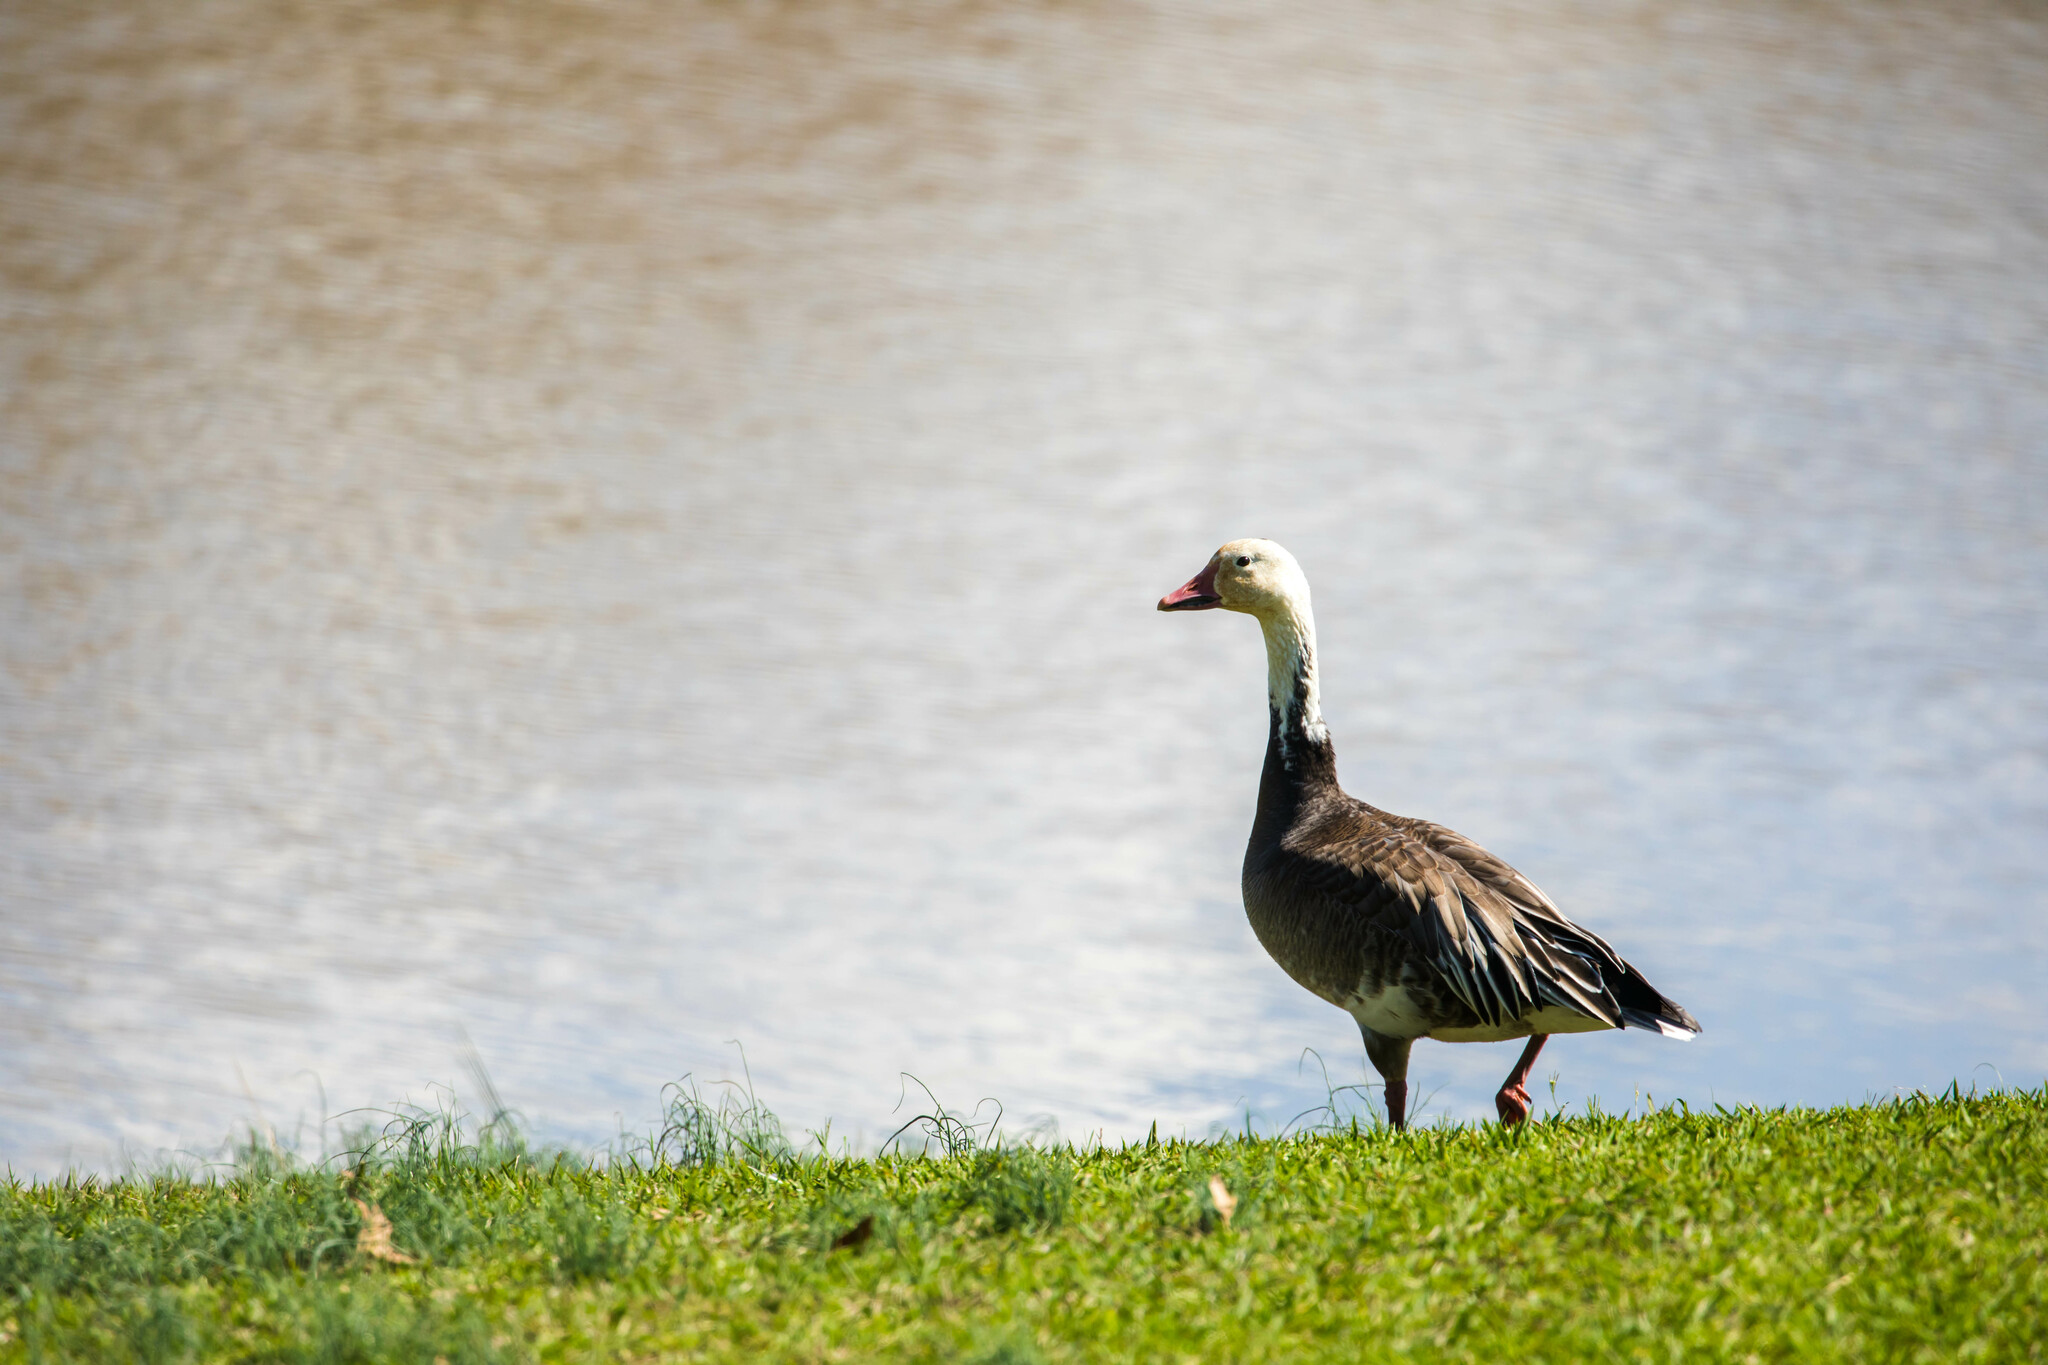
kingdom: Animalia
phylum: Chordata
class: Aves
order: Anseriformes
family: Anatidae
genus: Anser
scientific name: Anser caerulescens
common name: Snow goose
